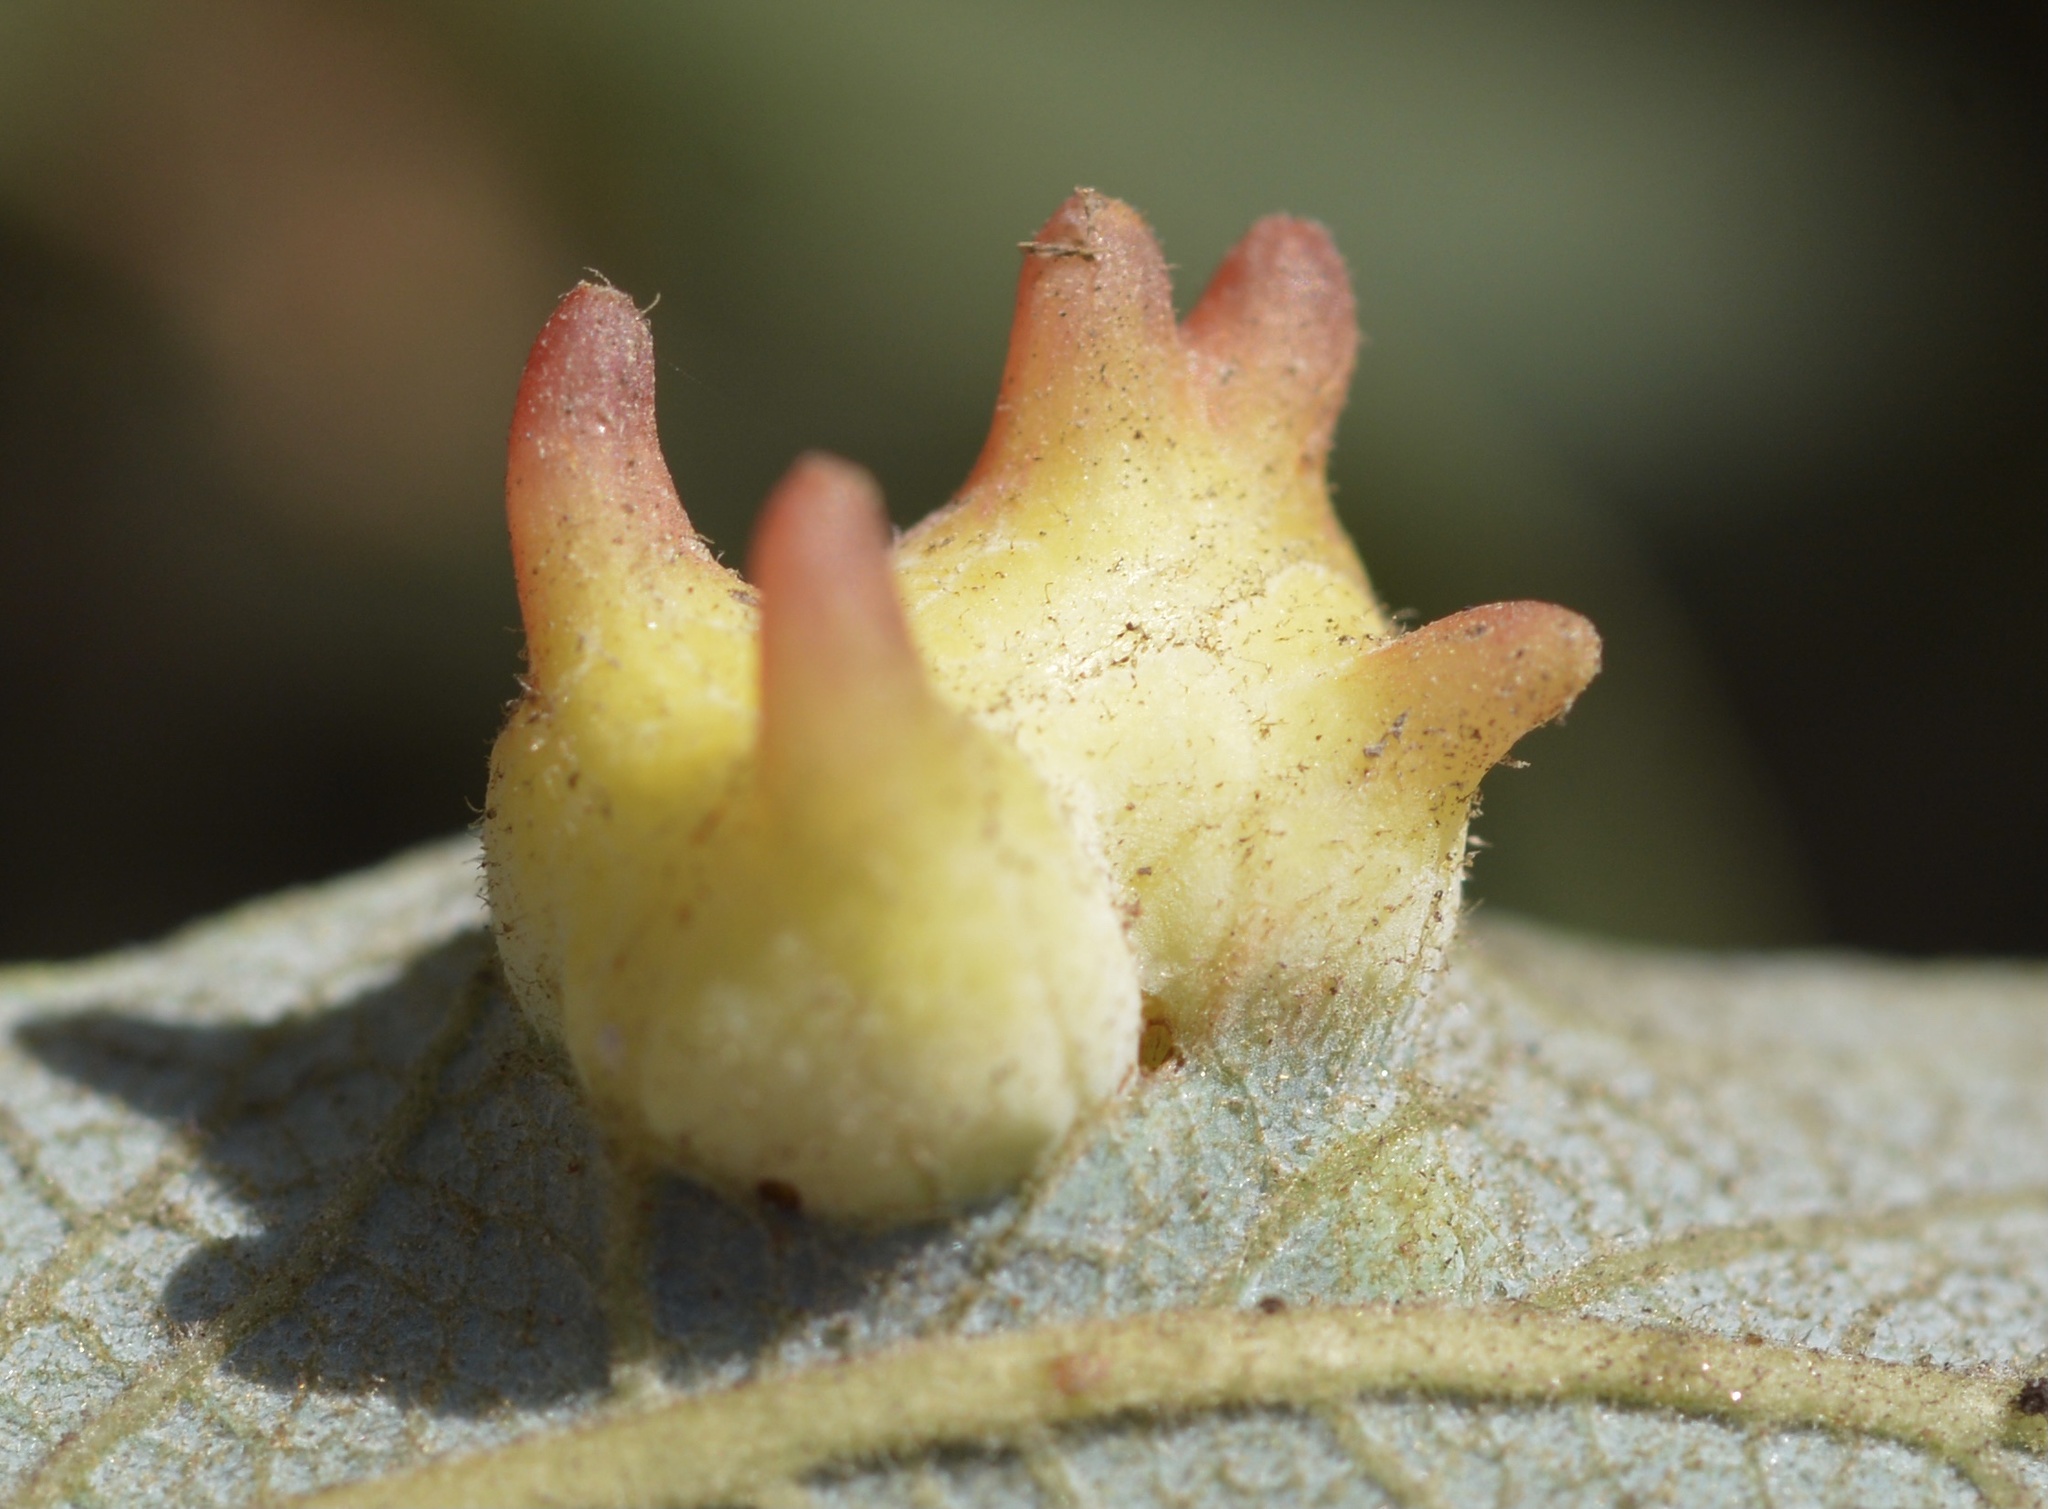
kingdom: Animalia
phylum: Arthropoda
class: Insecta
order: Diptera
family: Cecidomyiidae
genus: Iteomyia
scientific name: Iteomyia
